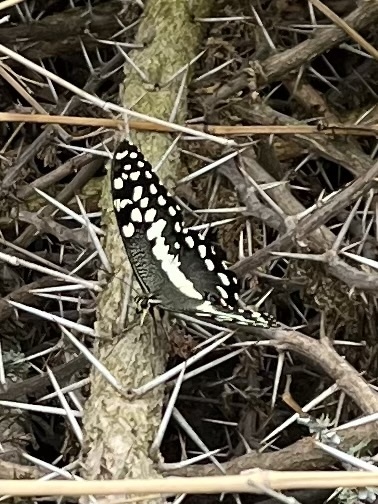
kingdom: Animalia
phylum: Arthropoda
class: Insecta
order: Lepidoptera
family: Papilionidae
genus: Papilio
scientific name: Papilio demodocus
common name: Christmas butterfly
